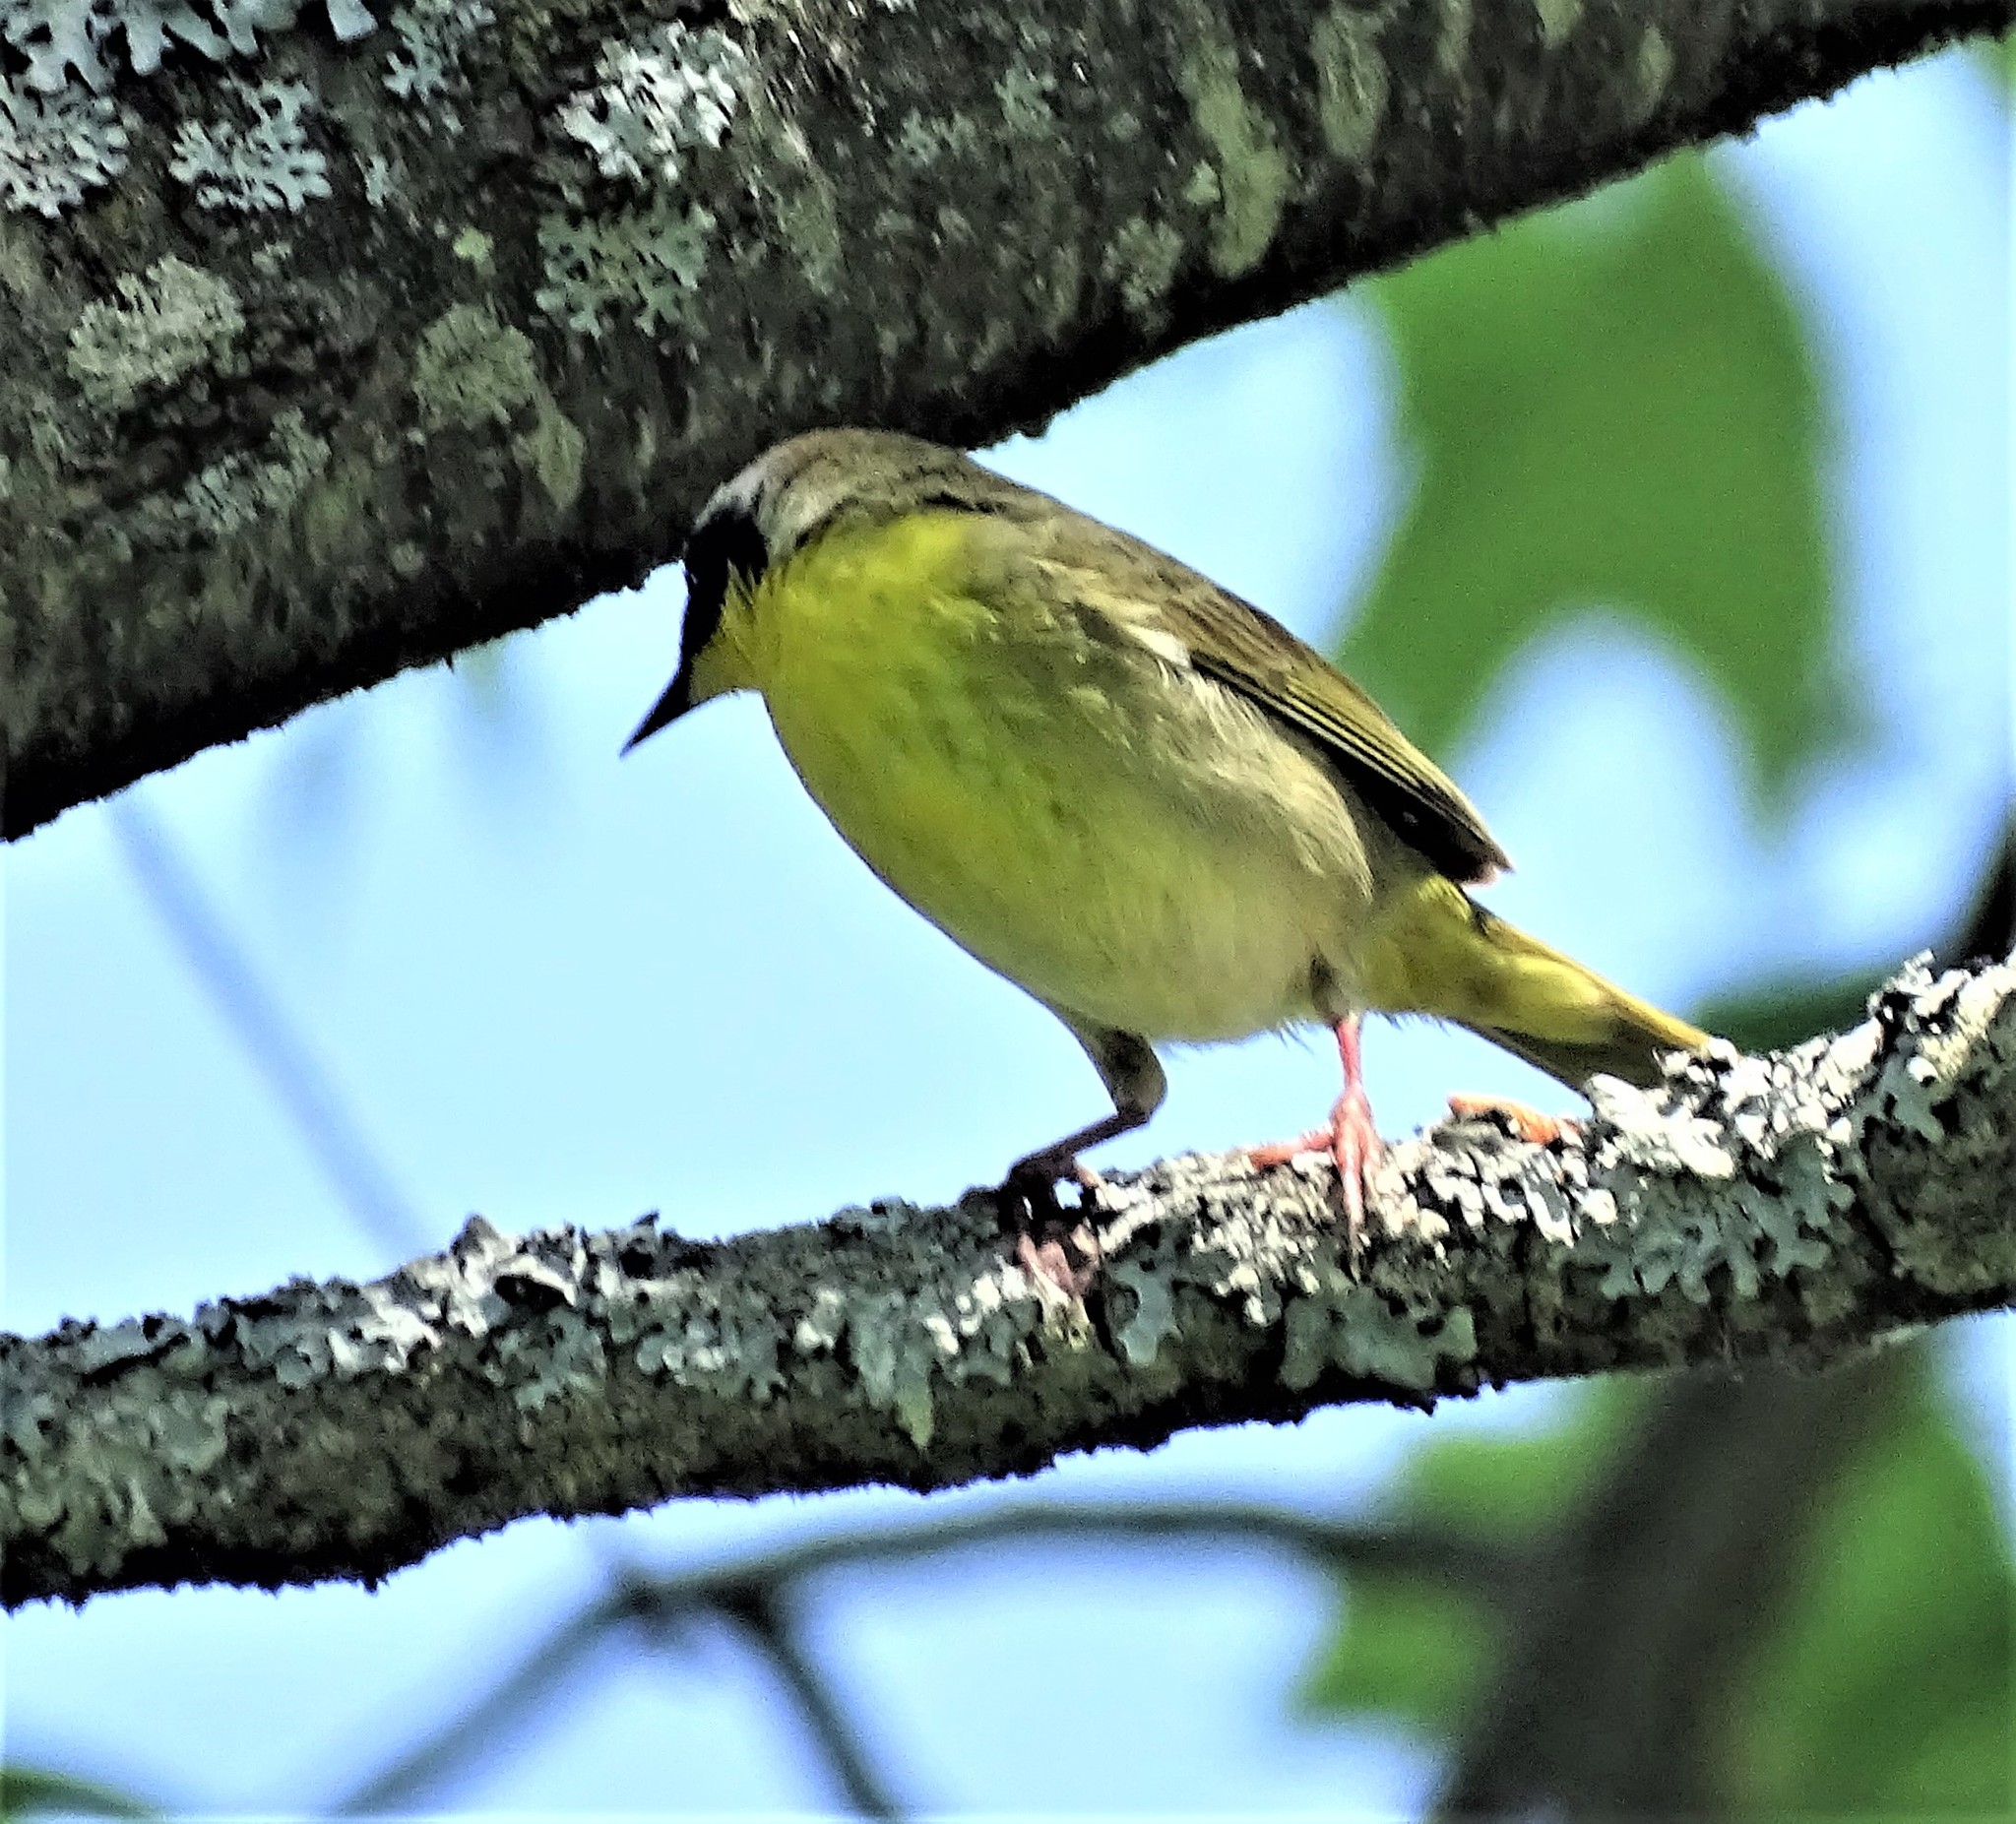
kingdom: Animalia
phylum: Chordata
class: Aves
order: Passeriformes
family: Parulidae
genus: Geothlypis
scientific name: Geothlypis trichas
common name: Common yellowthroat
